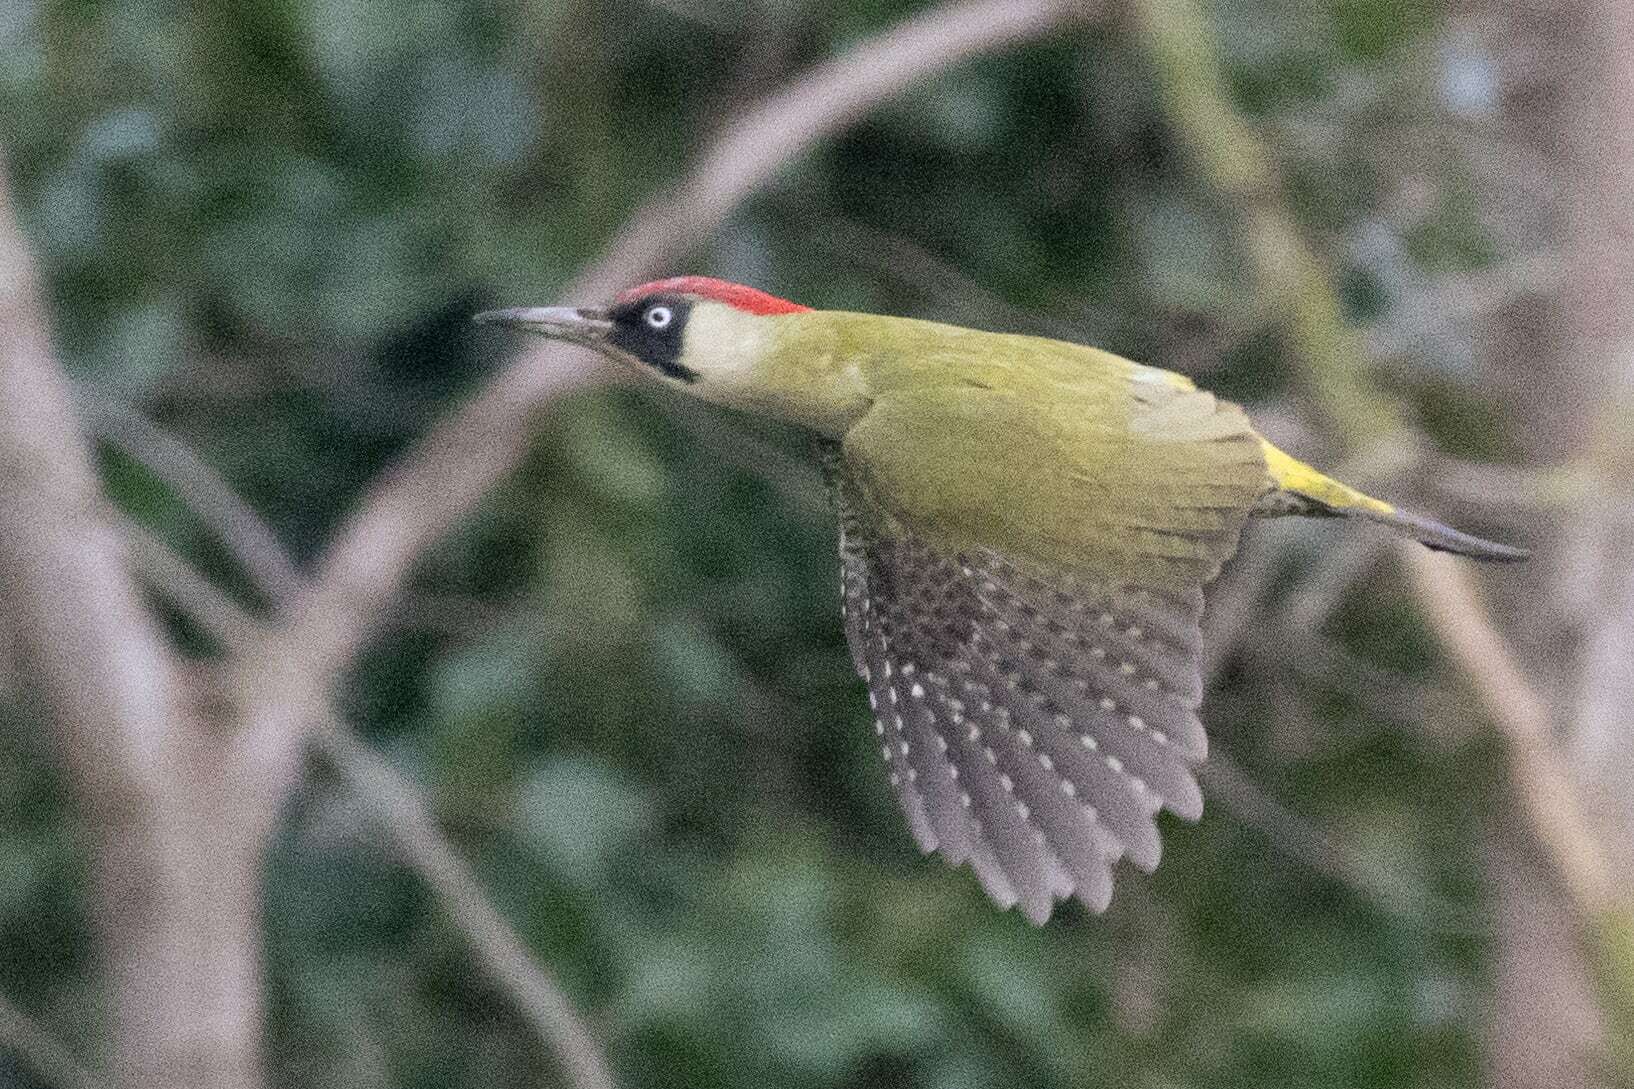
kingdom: Animalia
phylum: Chordata
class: Aves
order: Piciformes
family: Picidae
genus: Picus
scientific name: Picus viridis
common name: European green woodpecker
